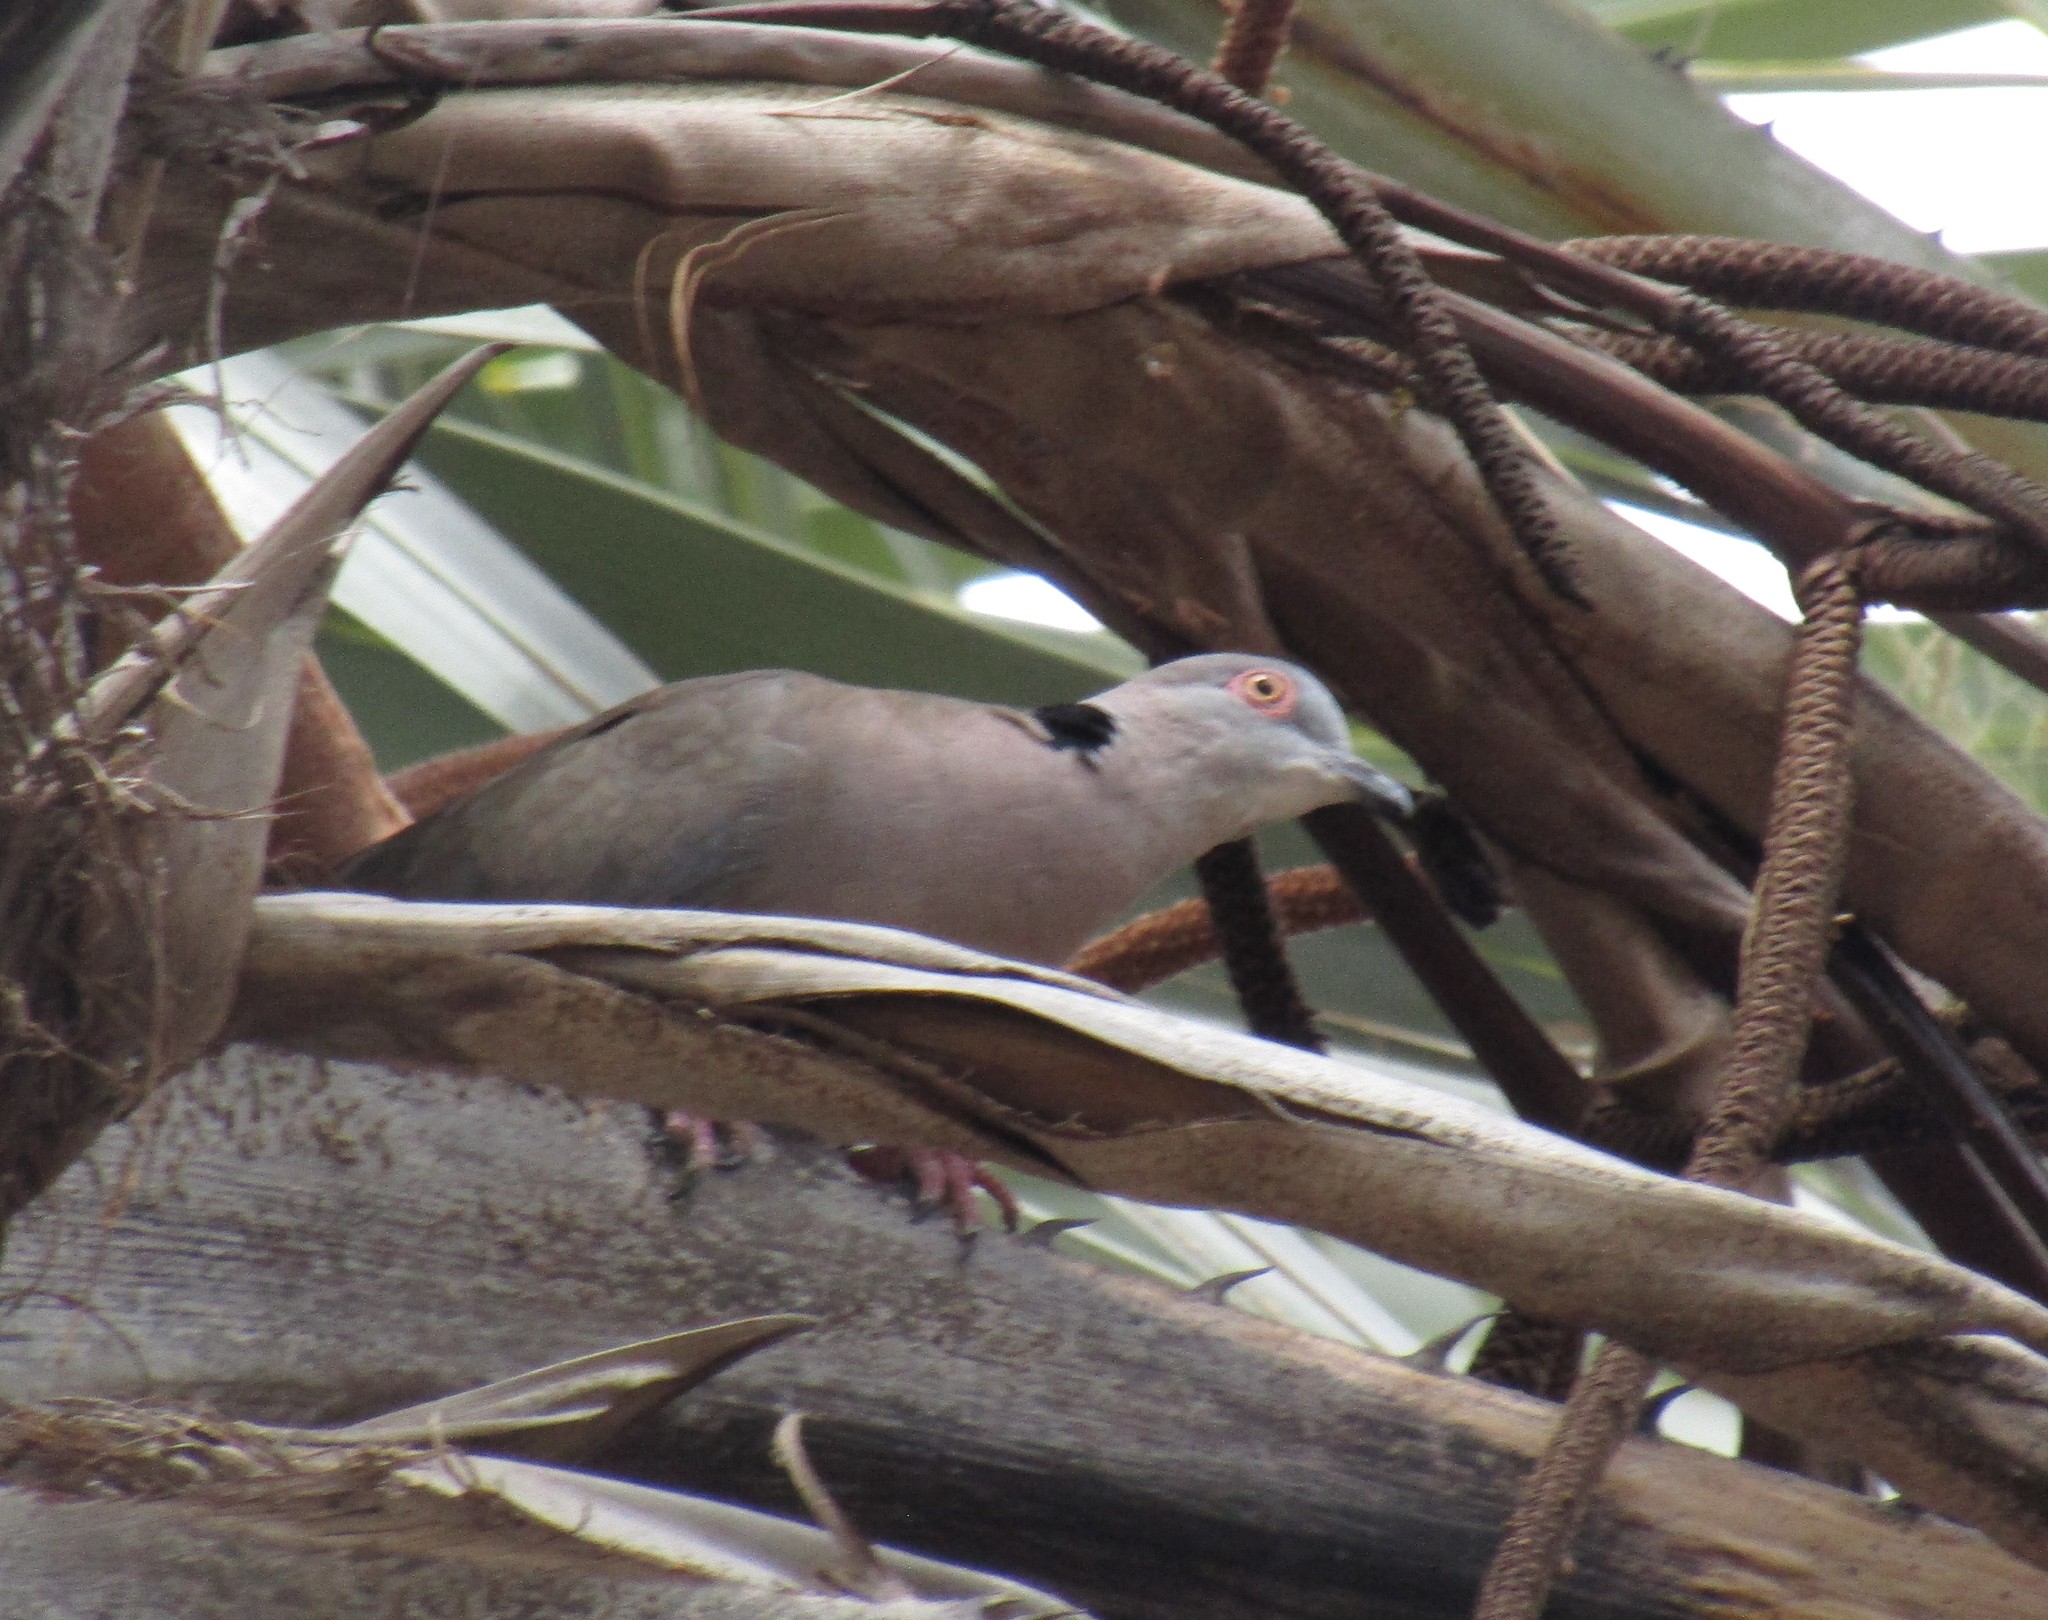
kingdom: Animalia
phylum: Chordata
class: Aves
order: Columbiformes
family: Columbidae
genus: Streptopelia
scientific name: Streptopelia decipiens
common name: Mourning collared dove
